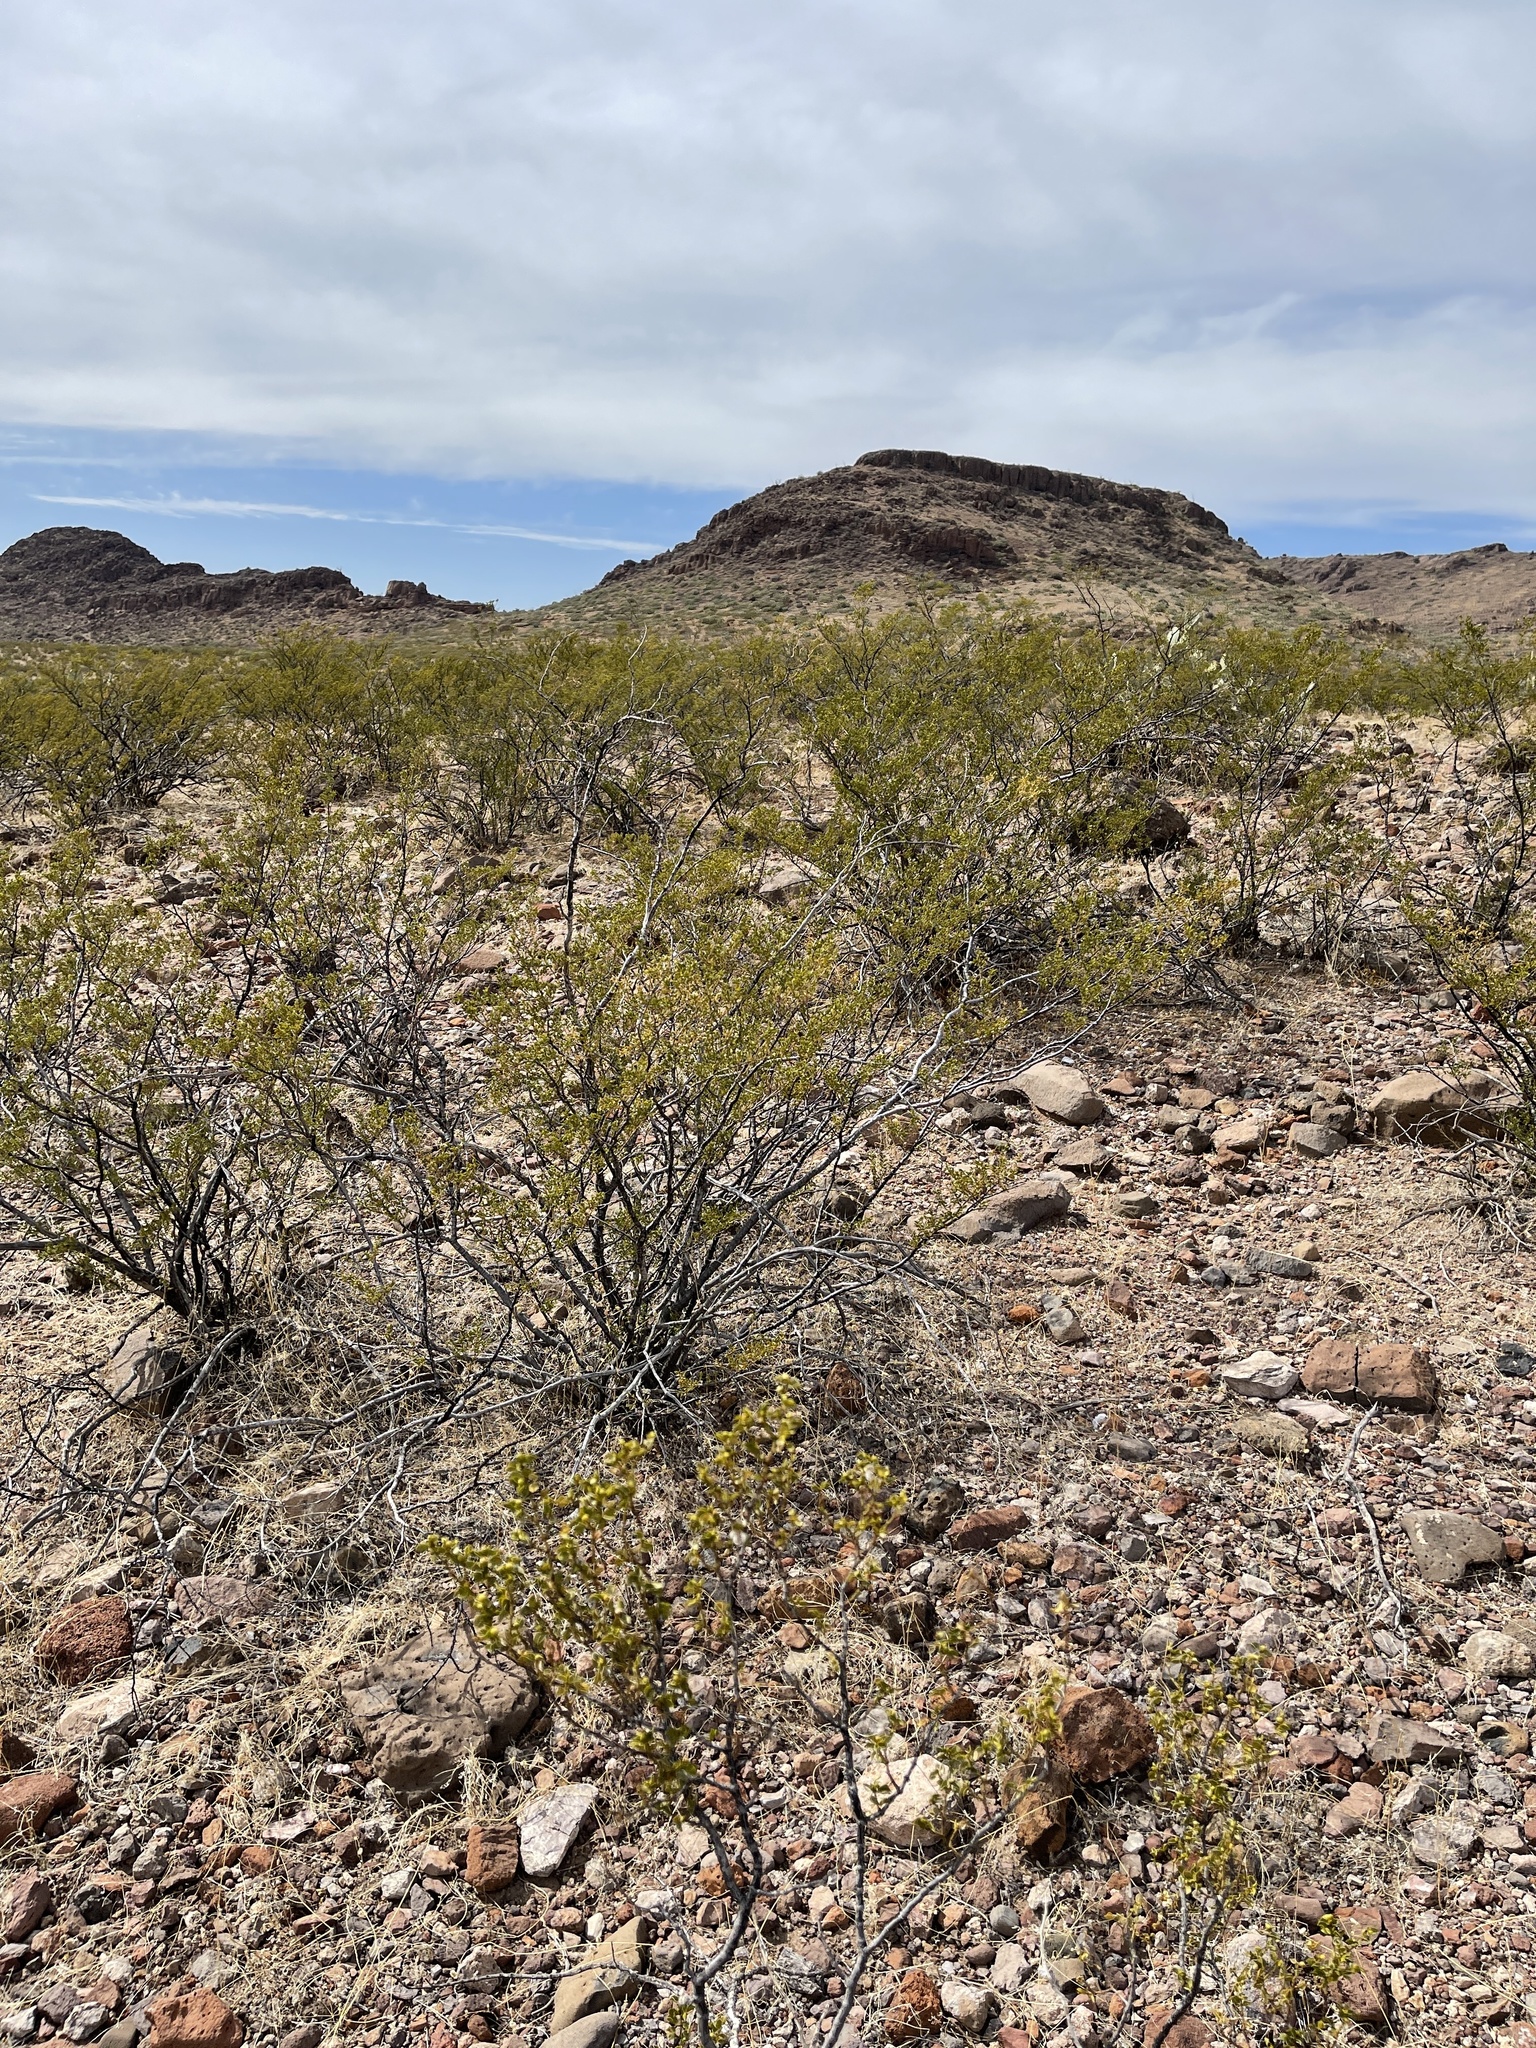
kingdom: Plantae
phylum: Tracheophyta
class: Magnoliopsida
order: Zygophyllales
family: Zygophyllaceae
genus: Larrea
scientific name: Larrea tridentata
